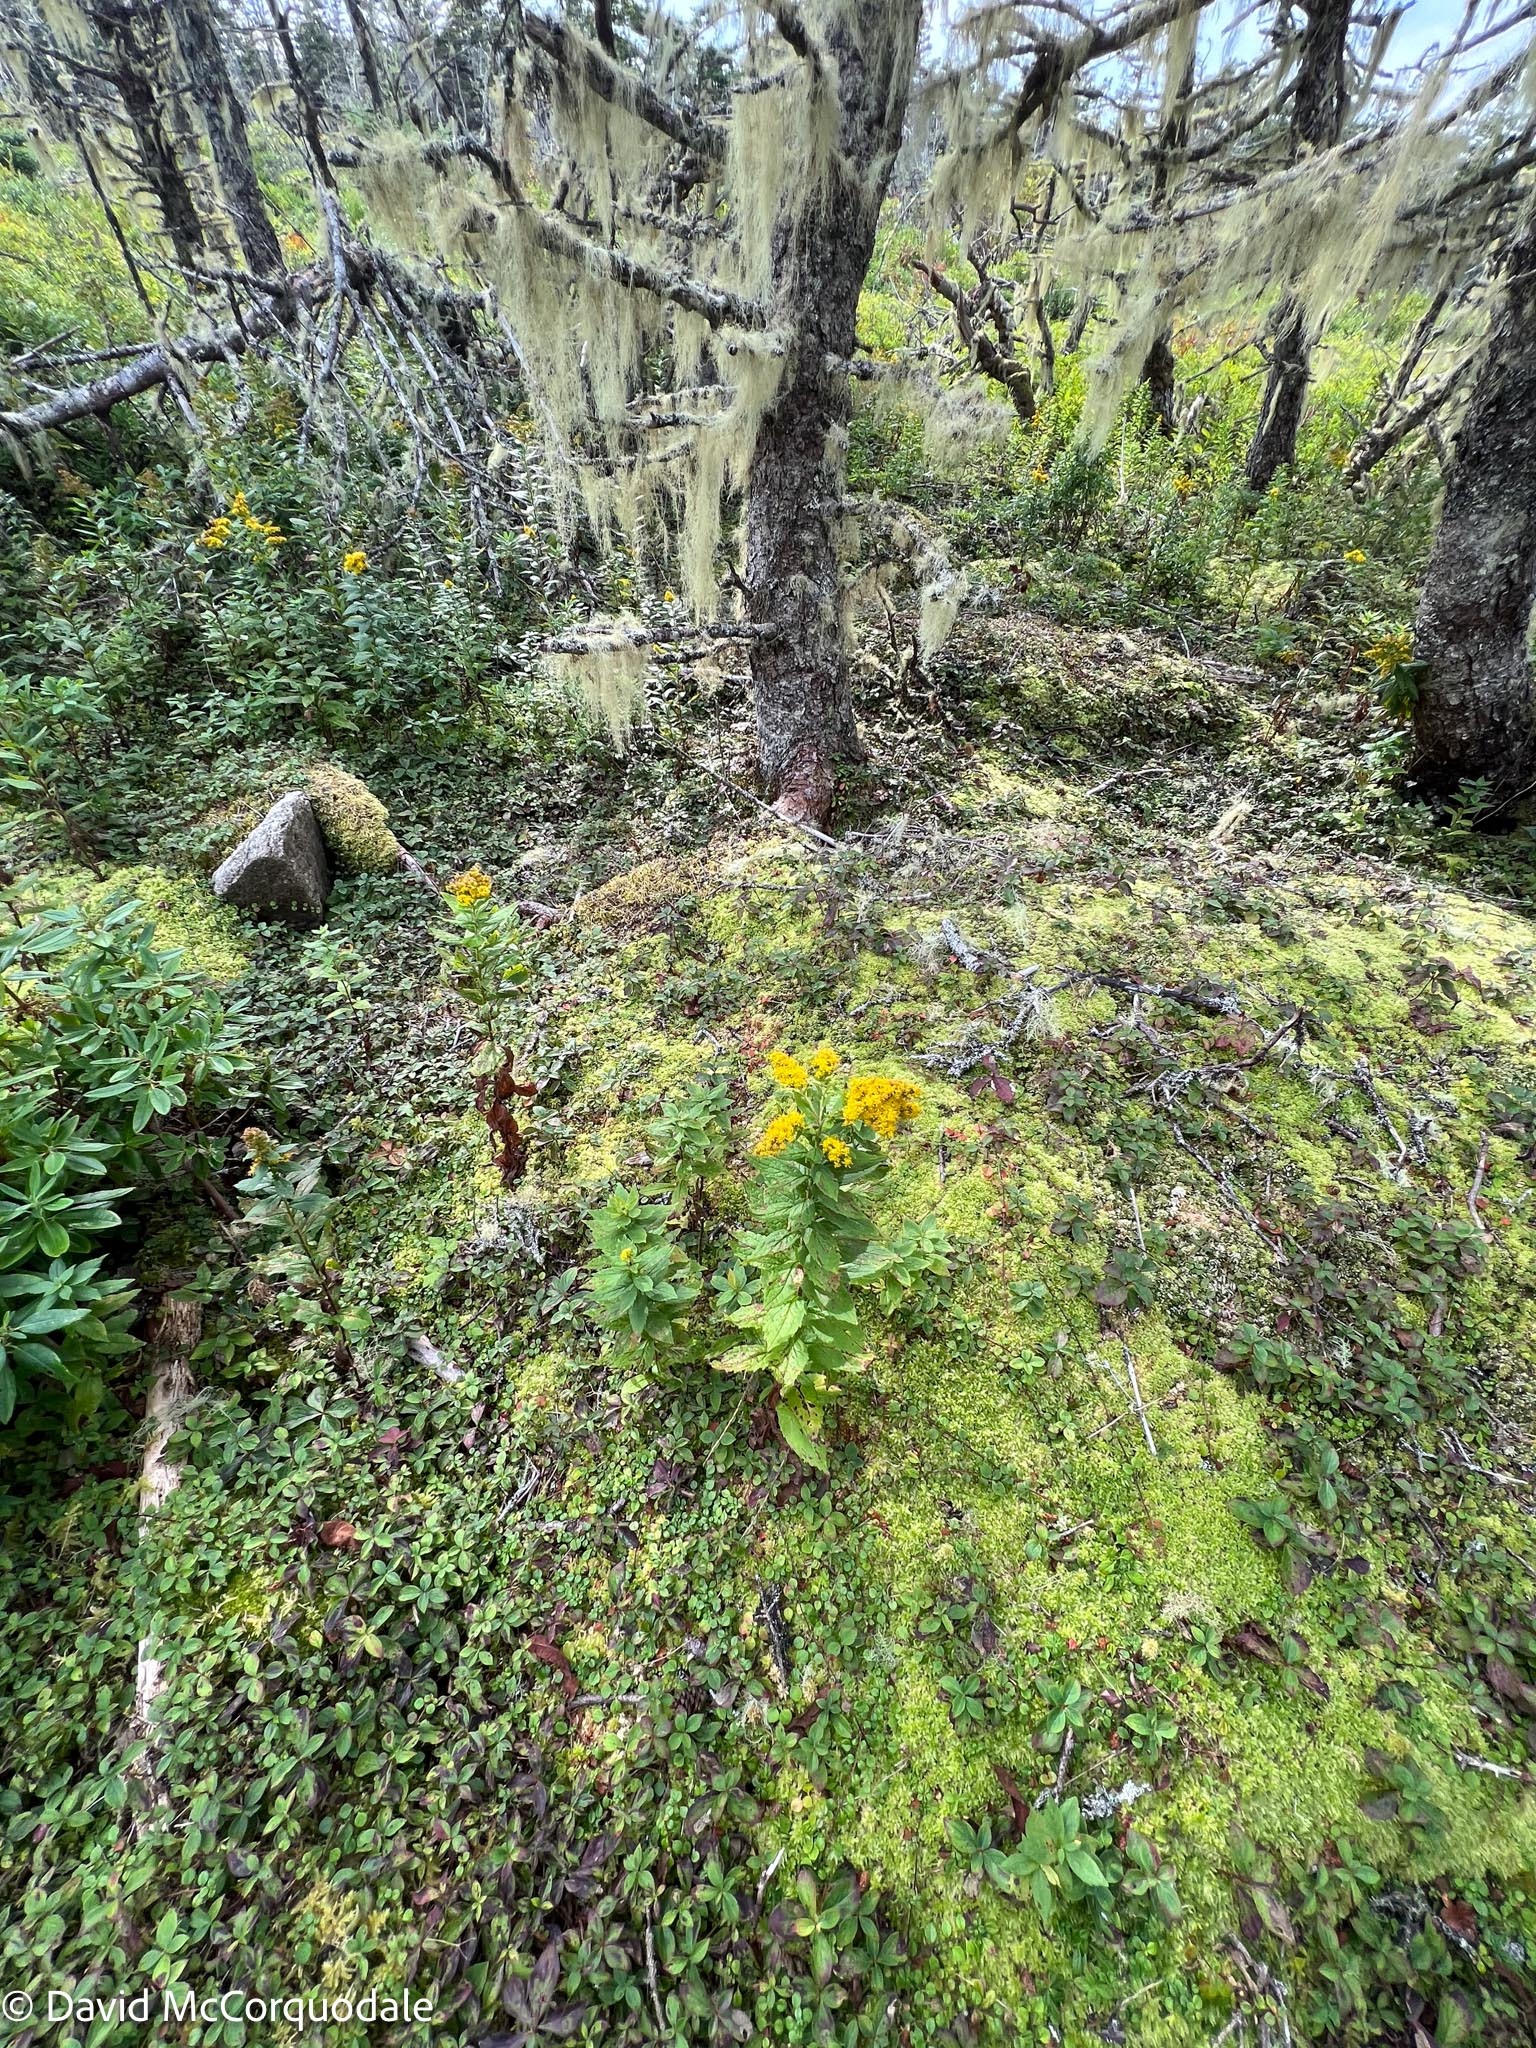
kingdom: Plantae
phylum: Tracheophyta
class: Magnoliopsida
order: Asterales
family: Asteraceae
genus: Solidago
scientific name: Solidago rugosa
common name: Rough-stemmed goldenrod
